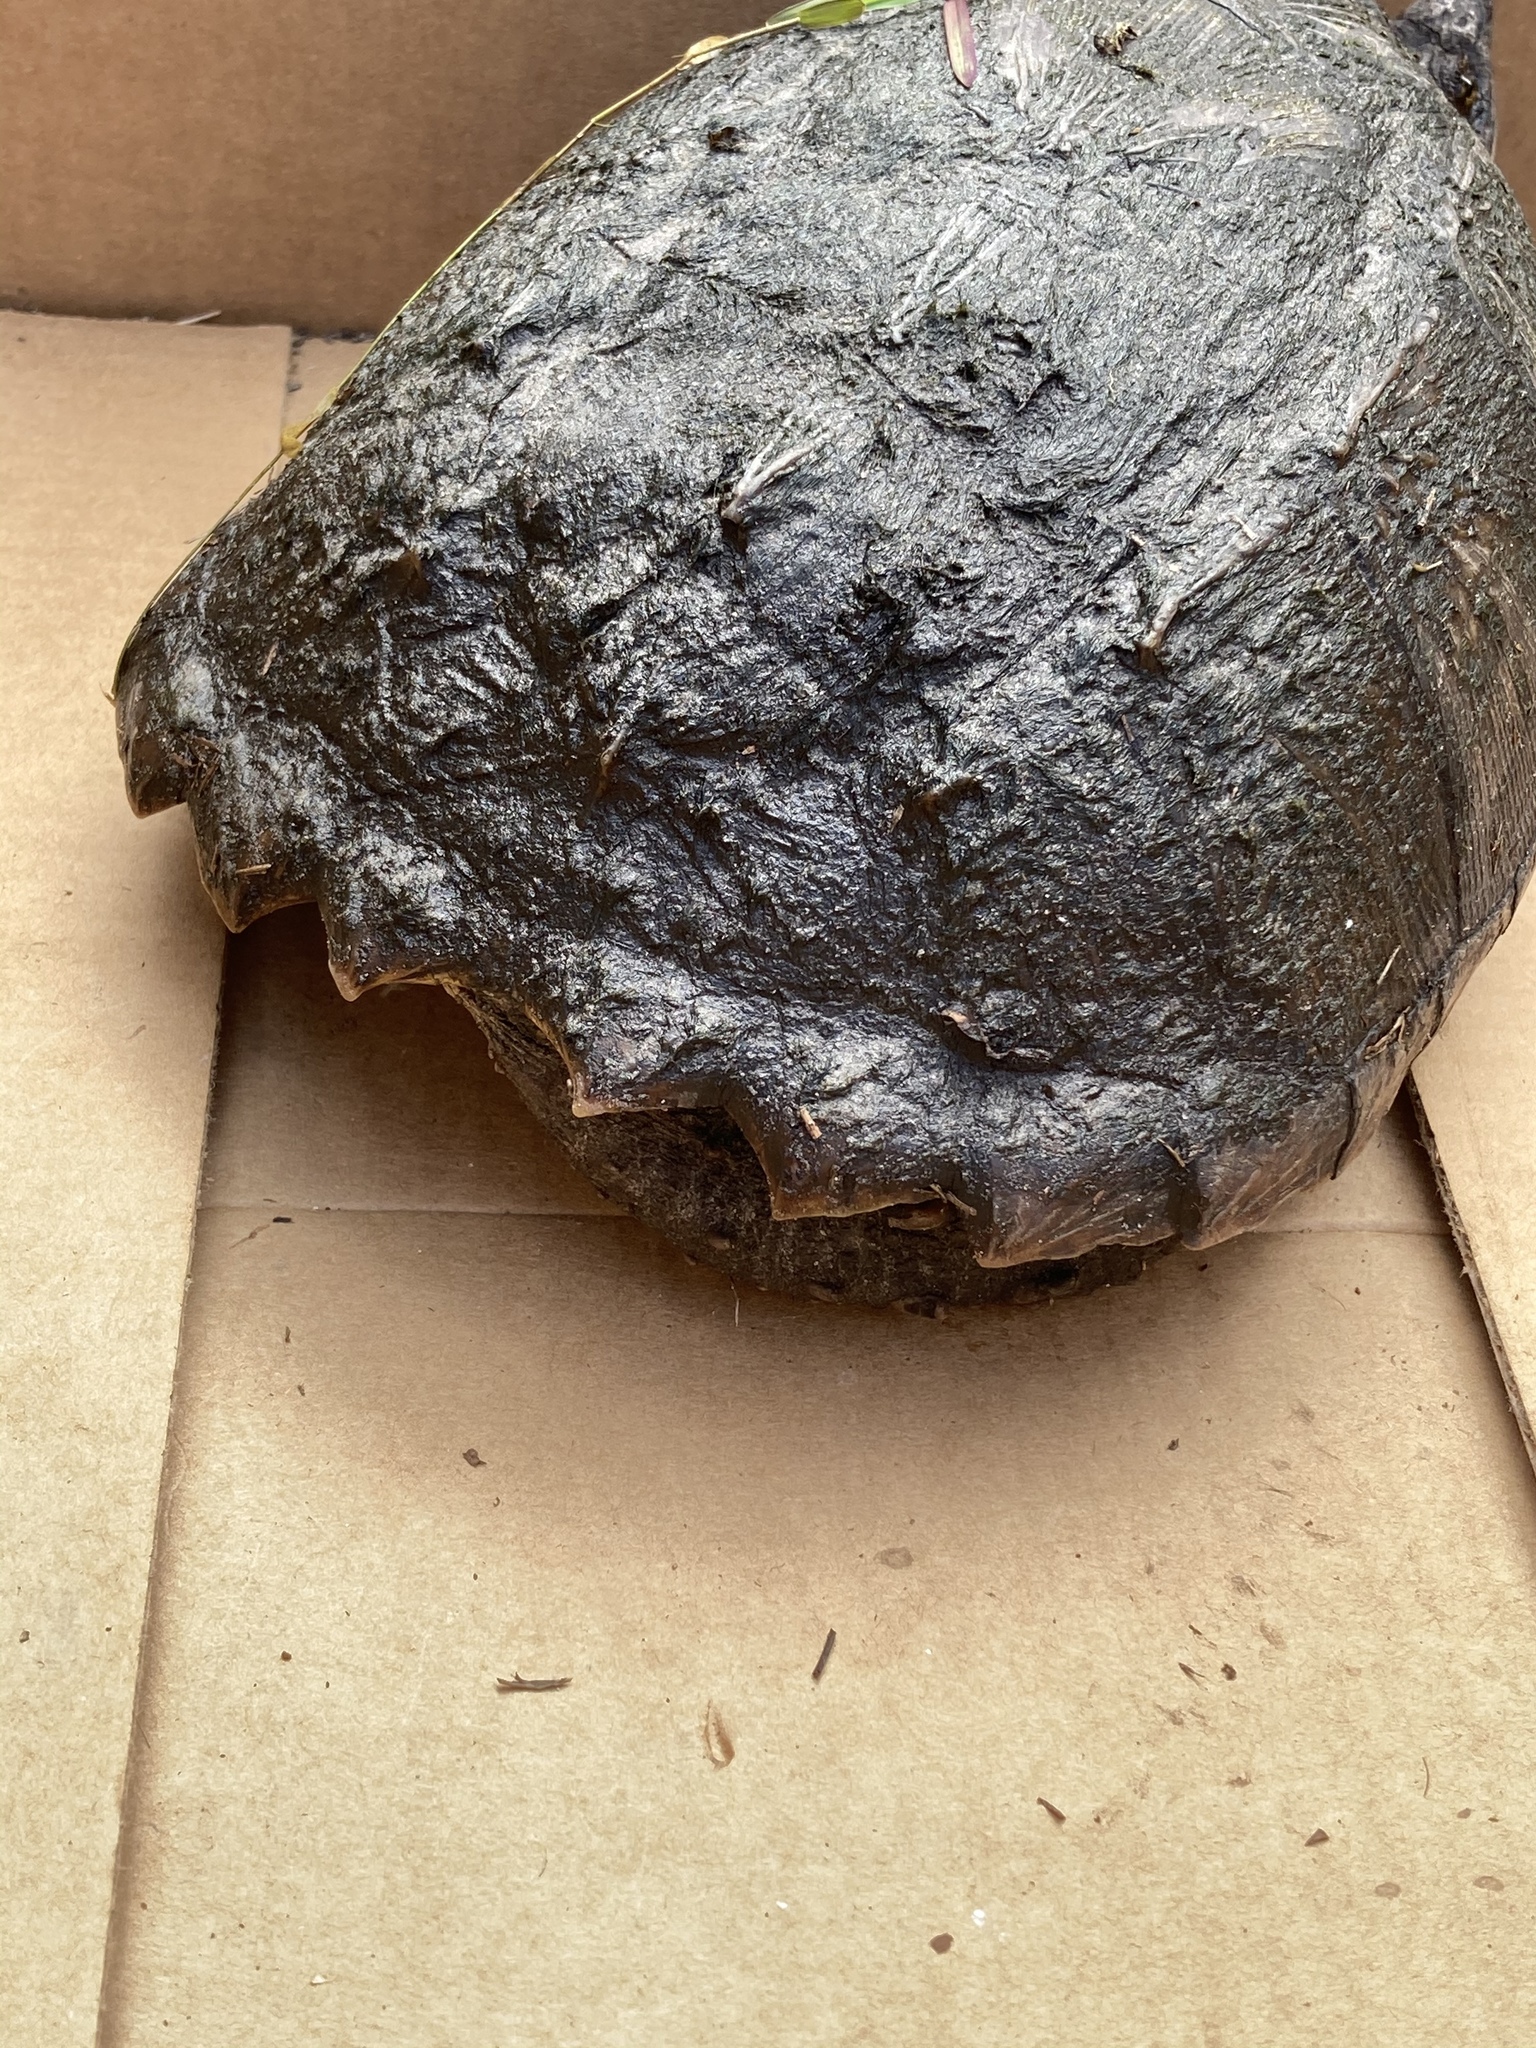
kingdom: Animalia
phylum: Chordata
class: Testudines
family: Chelydridae
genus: Chelydra
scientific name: Chelydra serpentina
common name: Common snapping turtle
